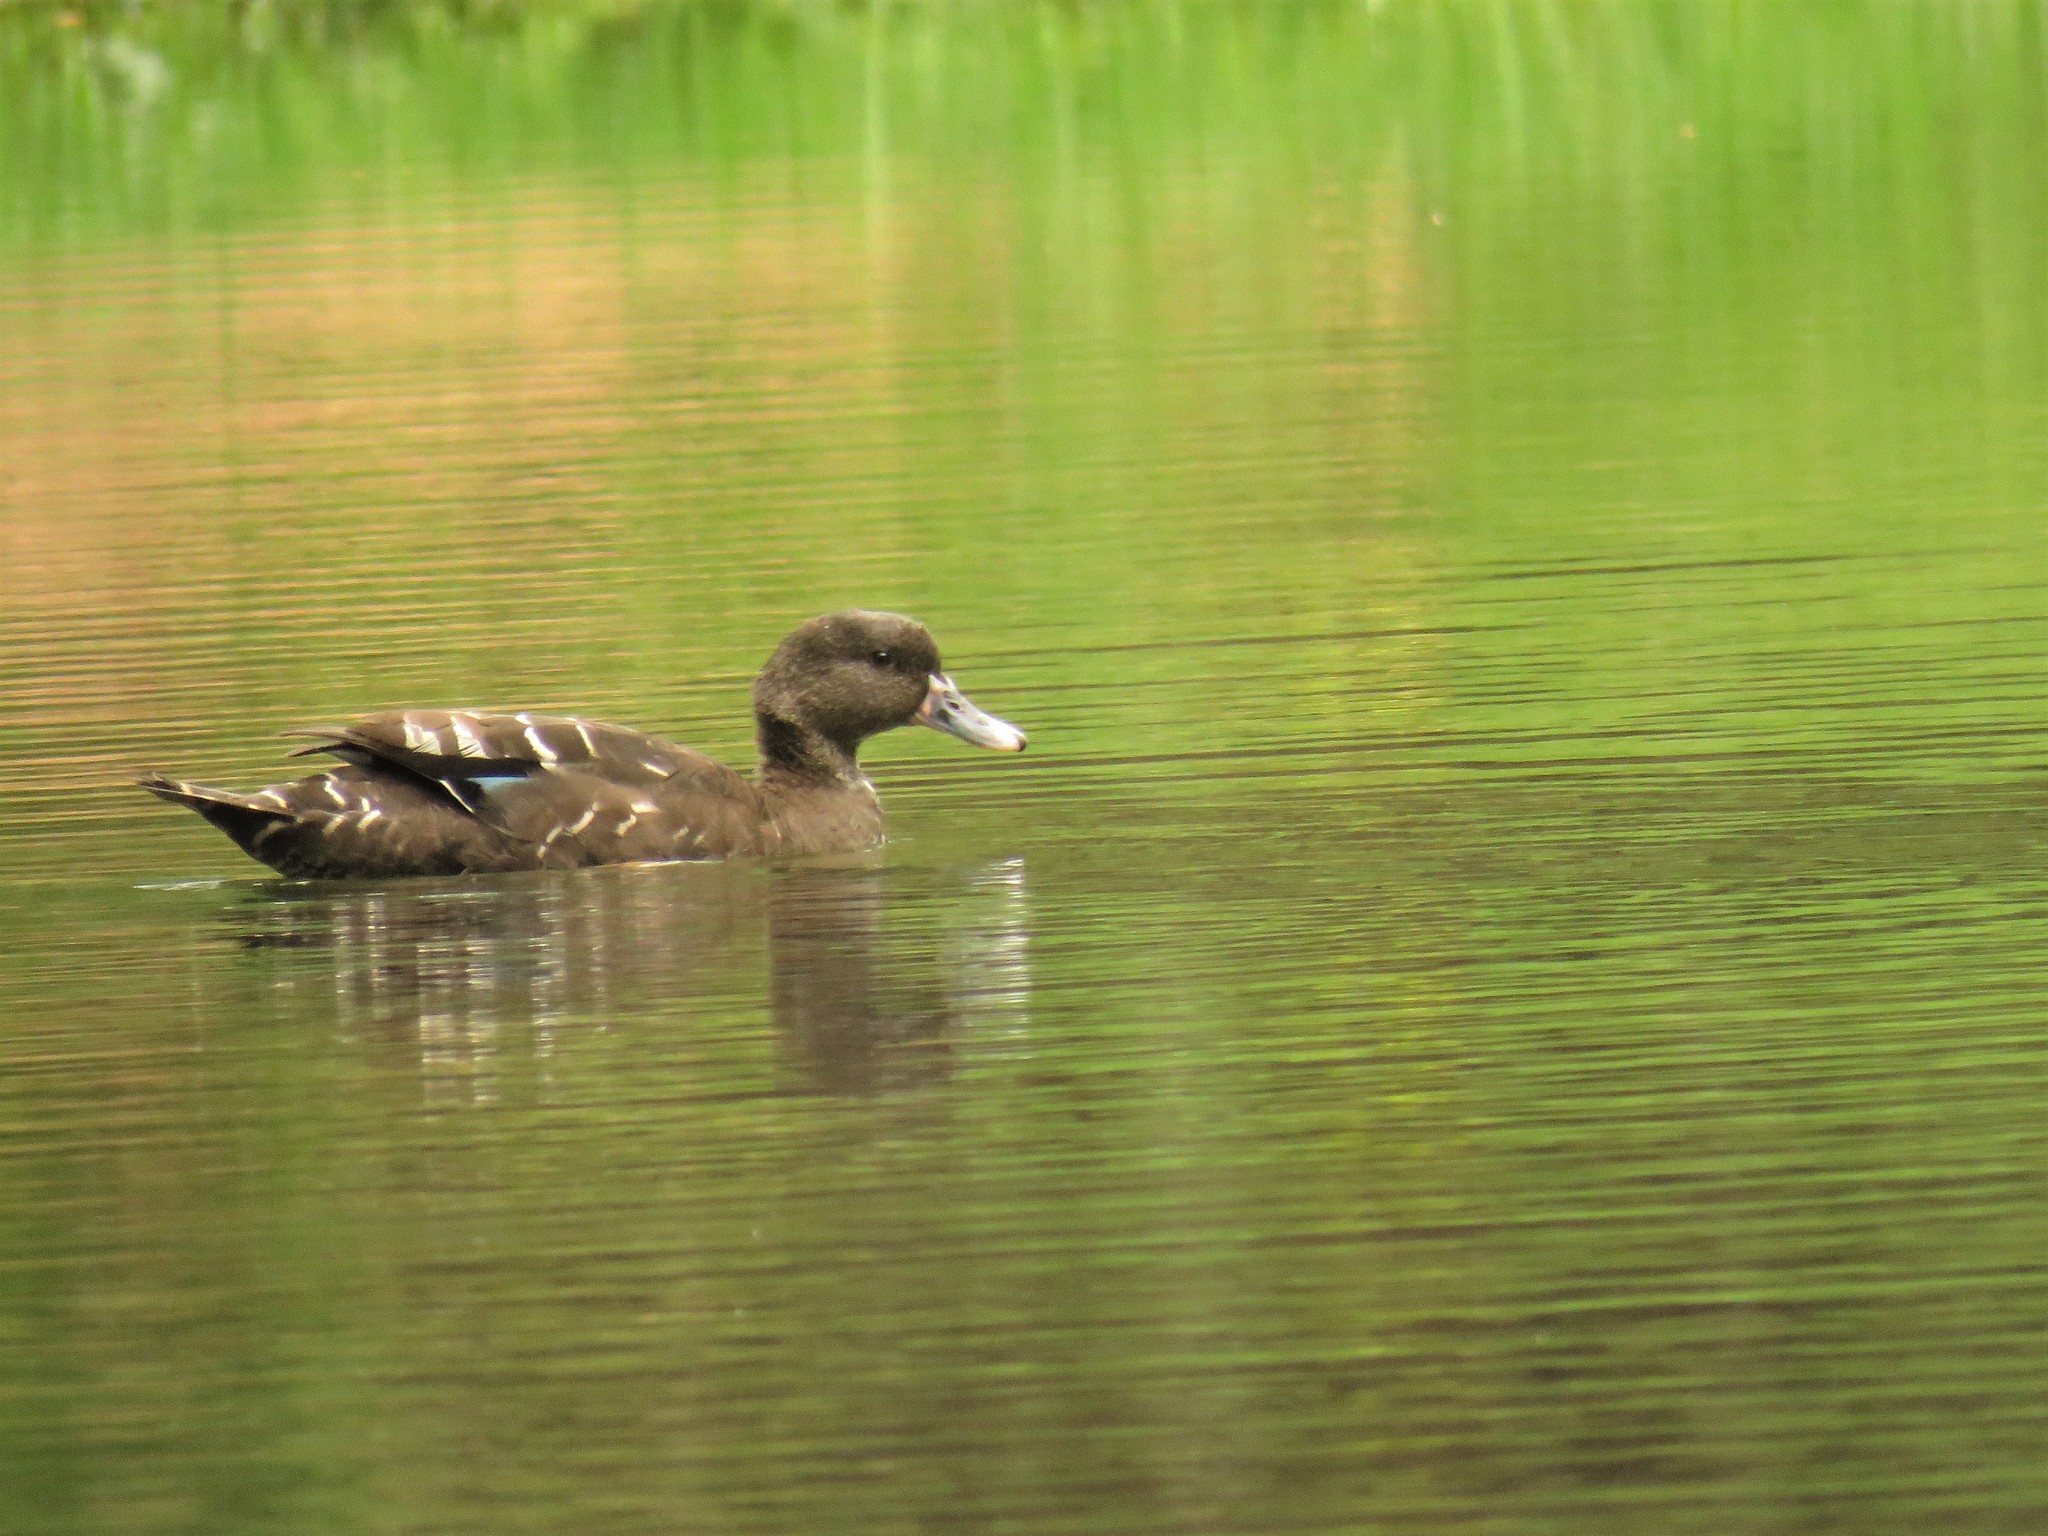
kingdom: Animalia
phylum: Chordata
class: Aves
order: Anseriformes
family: Anatidae
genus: Anas
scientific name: Anas sparsa
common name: African black duck
